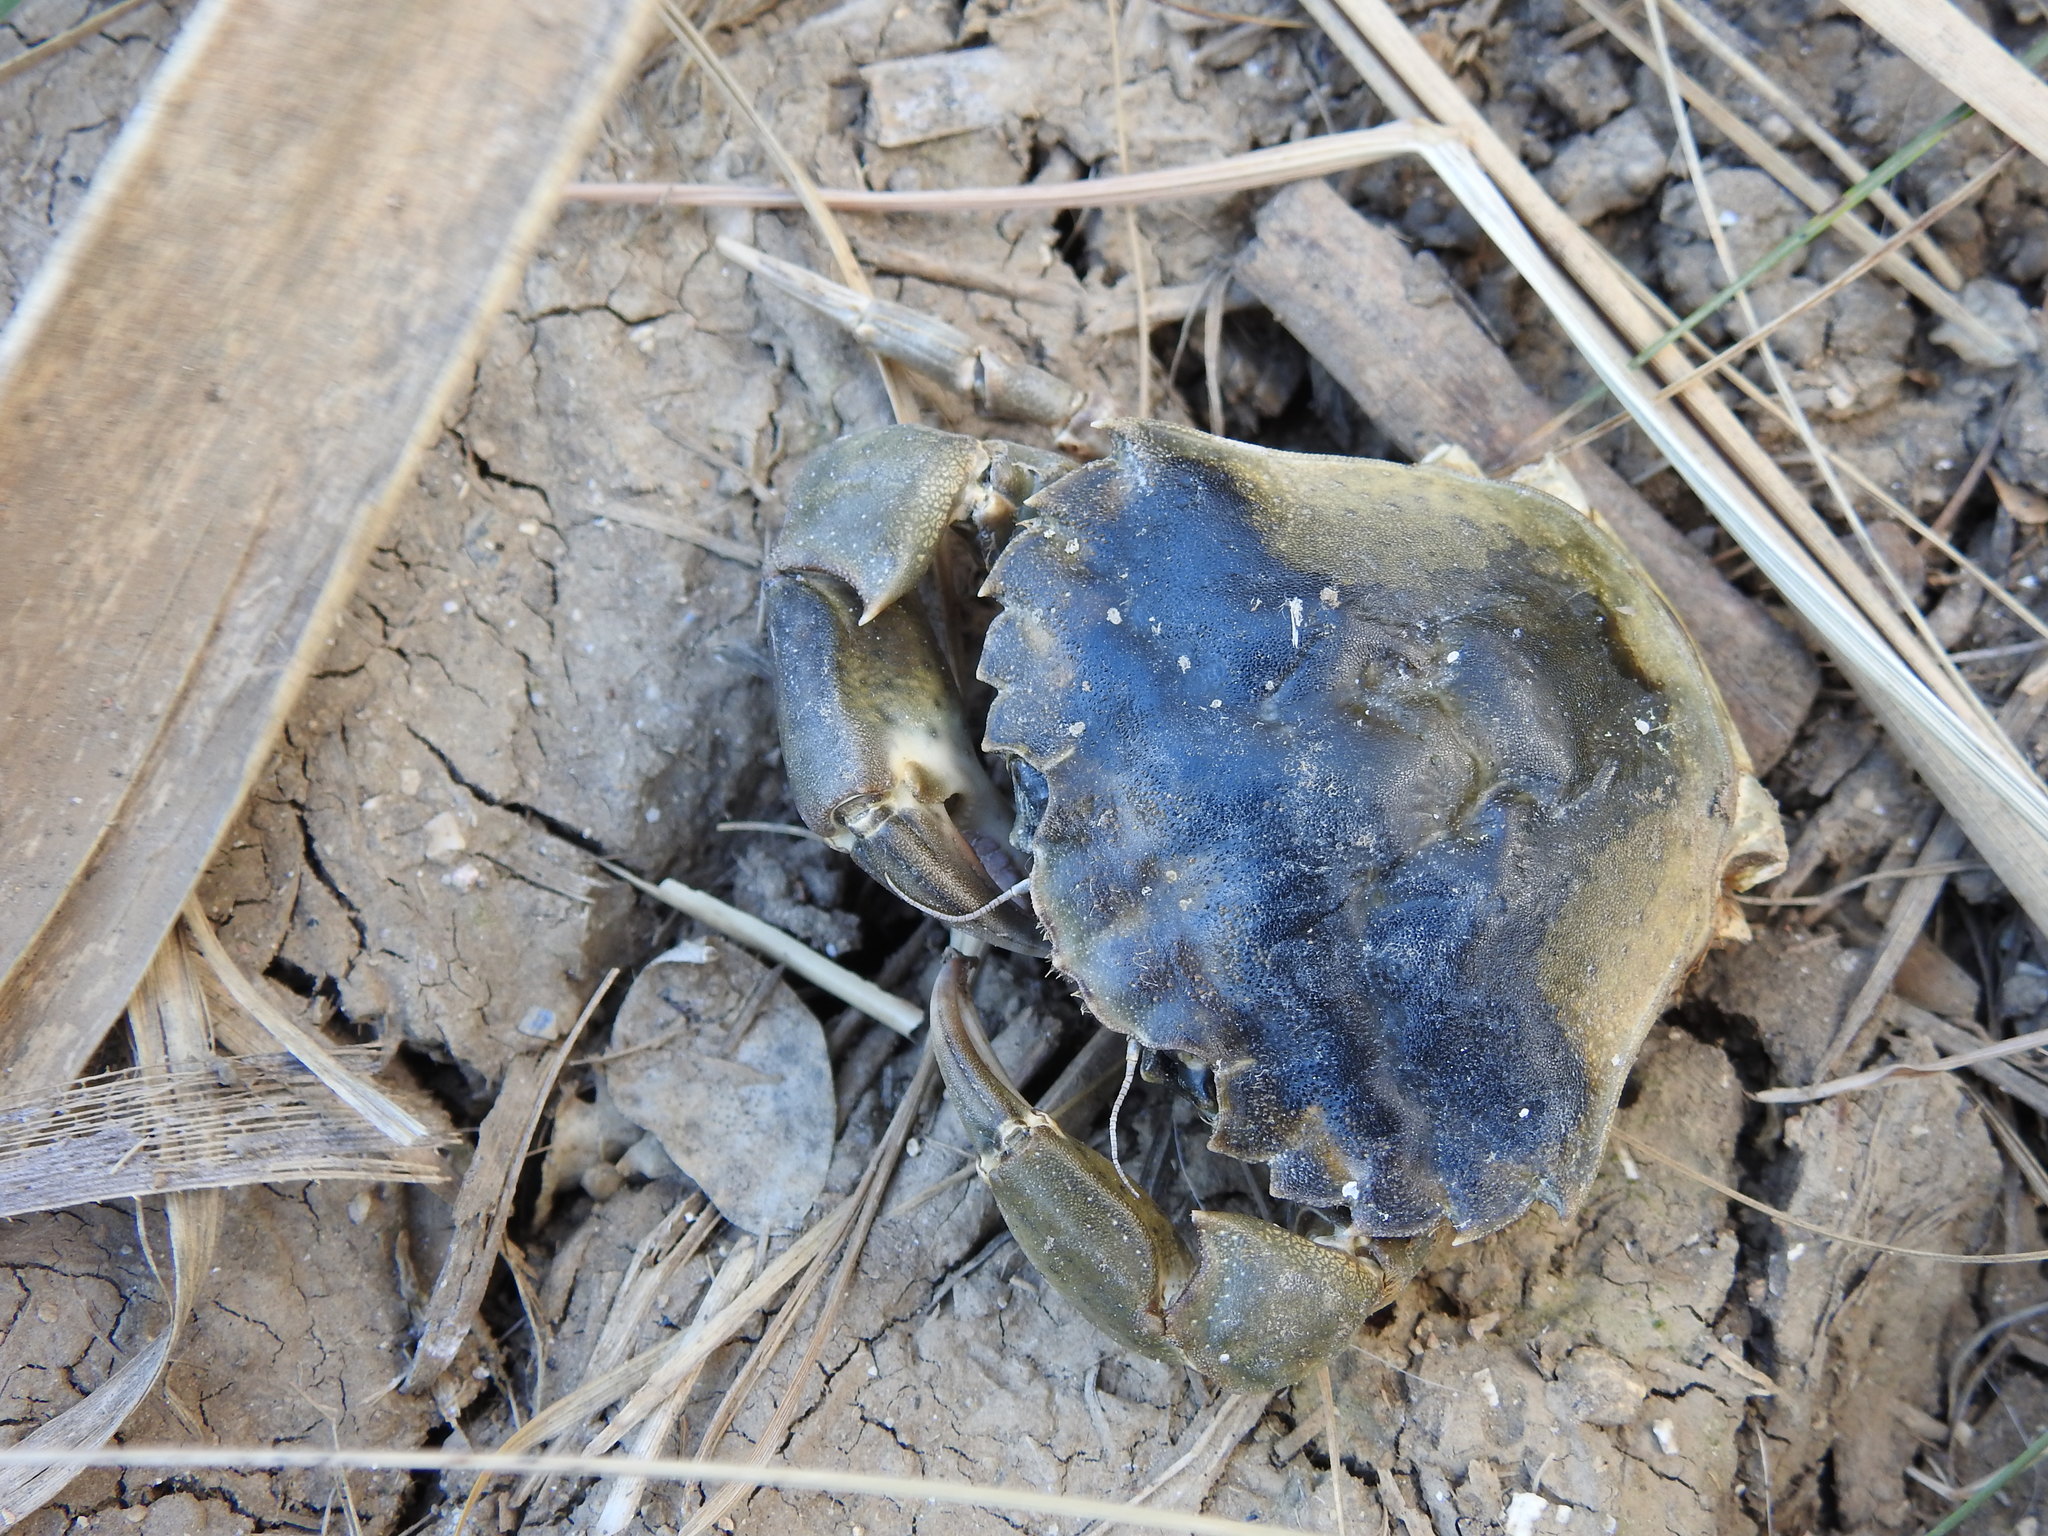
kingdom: Animalia
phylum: Arthropoda
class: Malacostraca
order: Decapoda
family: Carcinidae
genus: Carcinus
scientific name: Carcinus aestuarii
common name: Mediterranean green crab
